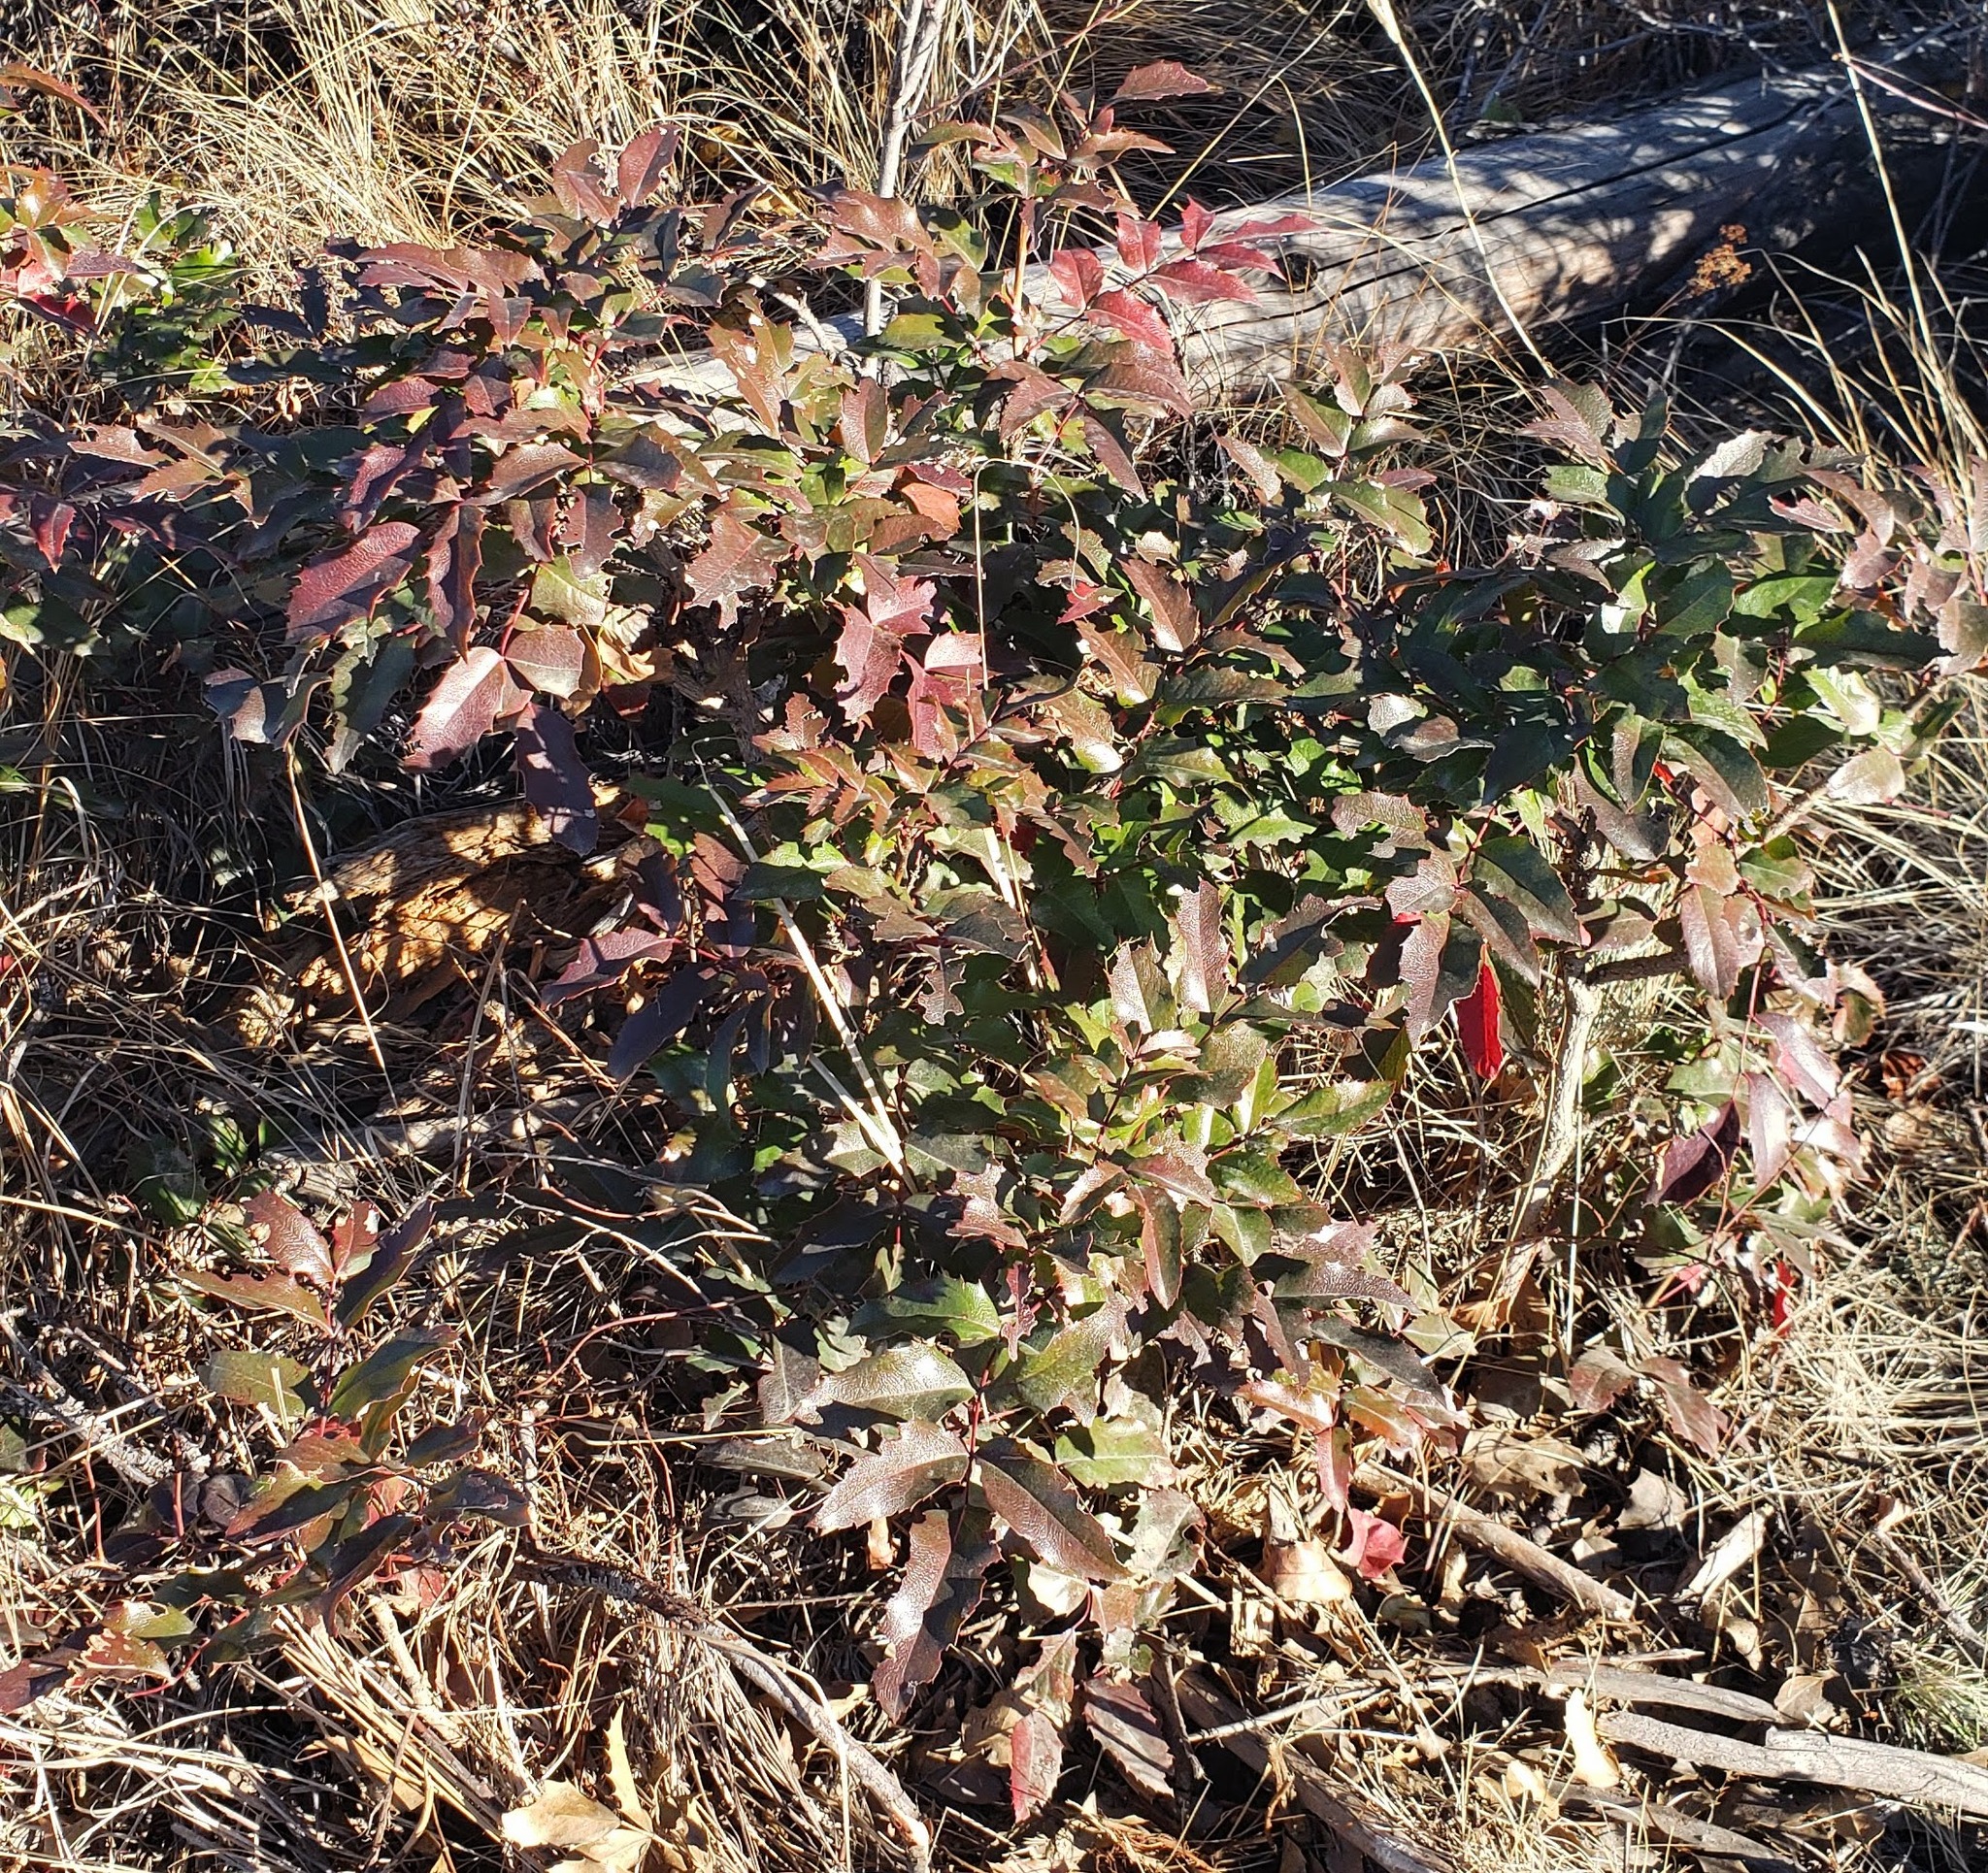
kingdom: Plantae
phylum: Tracheophyta
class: Magnoliopsida
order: Ranunculales
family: Berberidaceae
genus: Mahonia
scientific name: Mahonia aquifolium
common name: Oregon-grape
